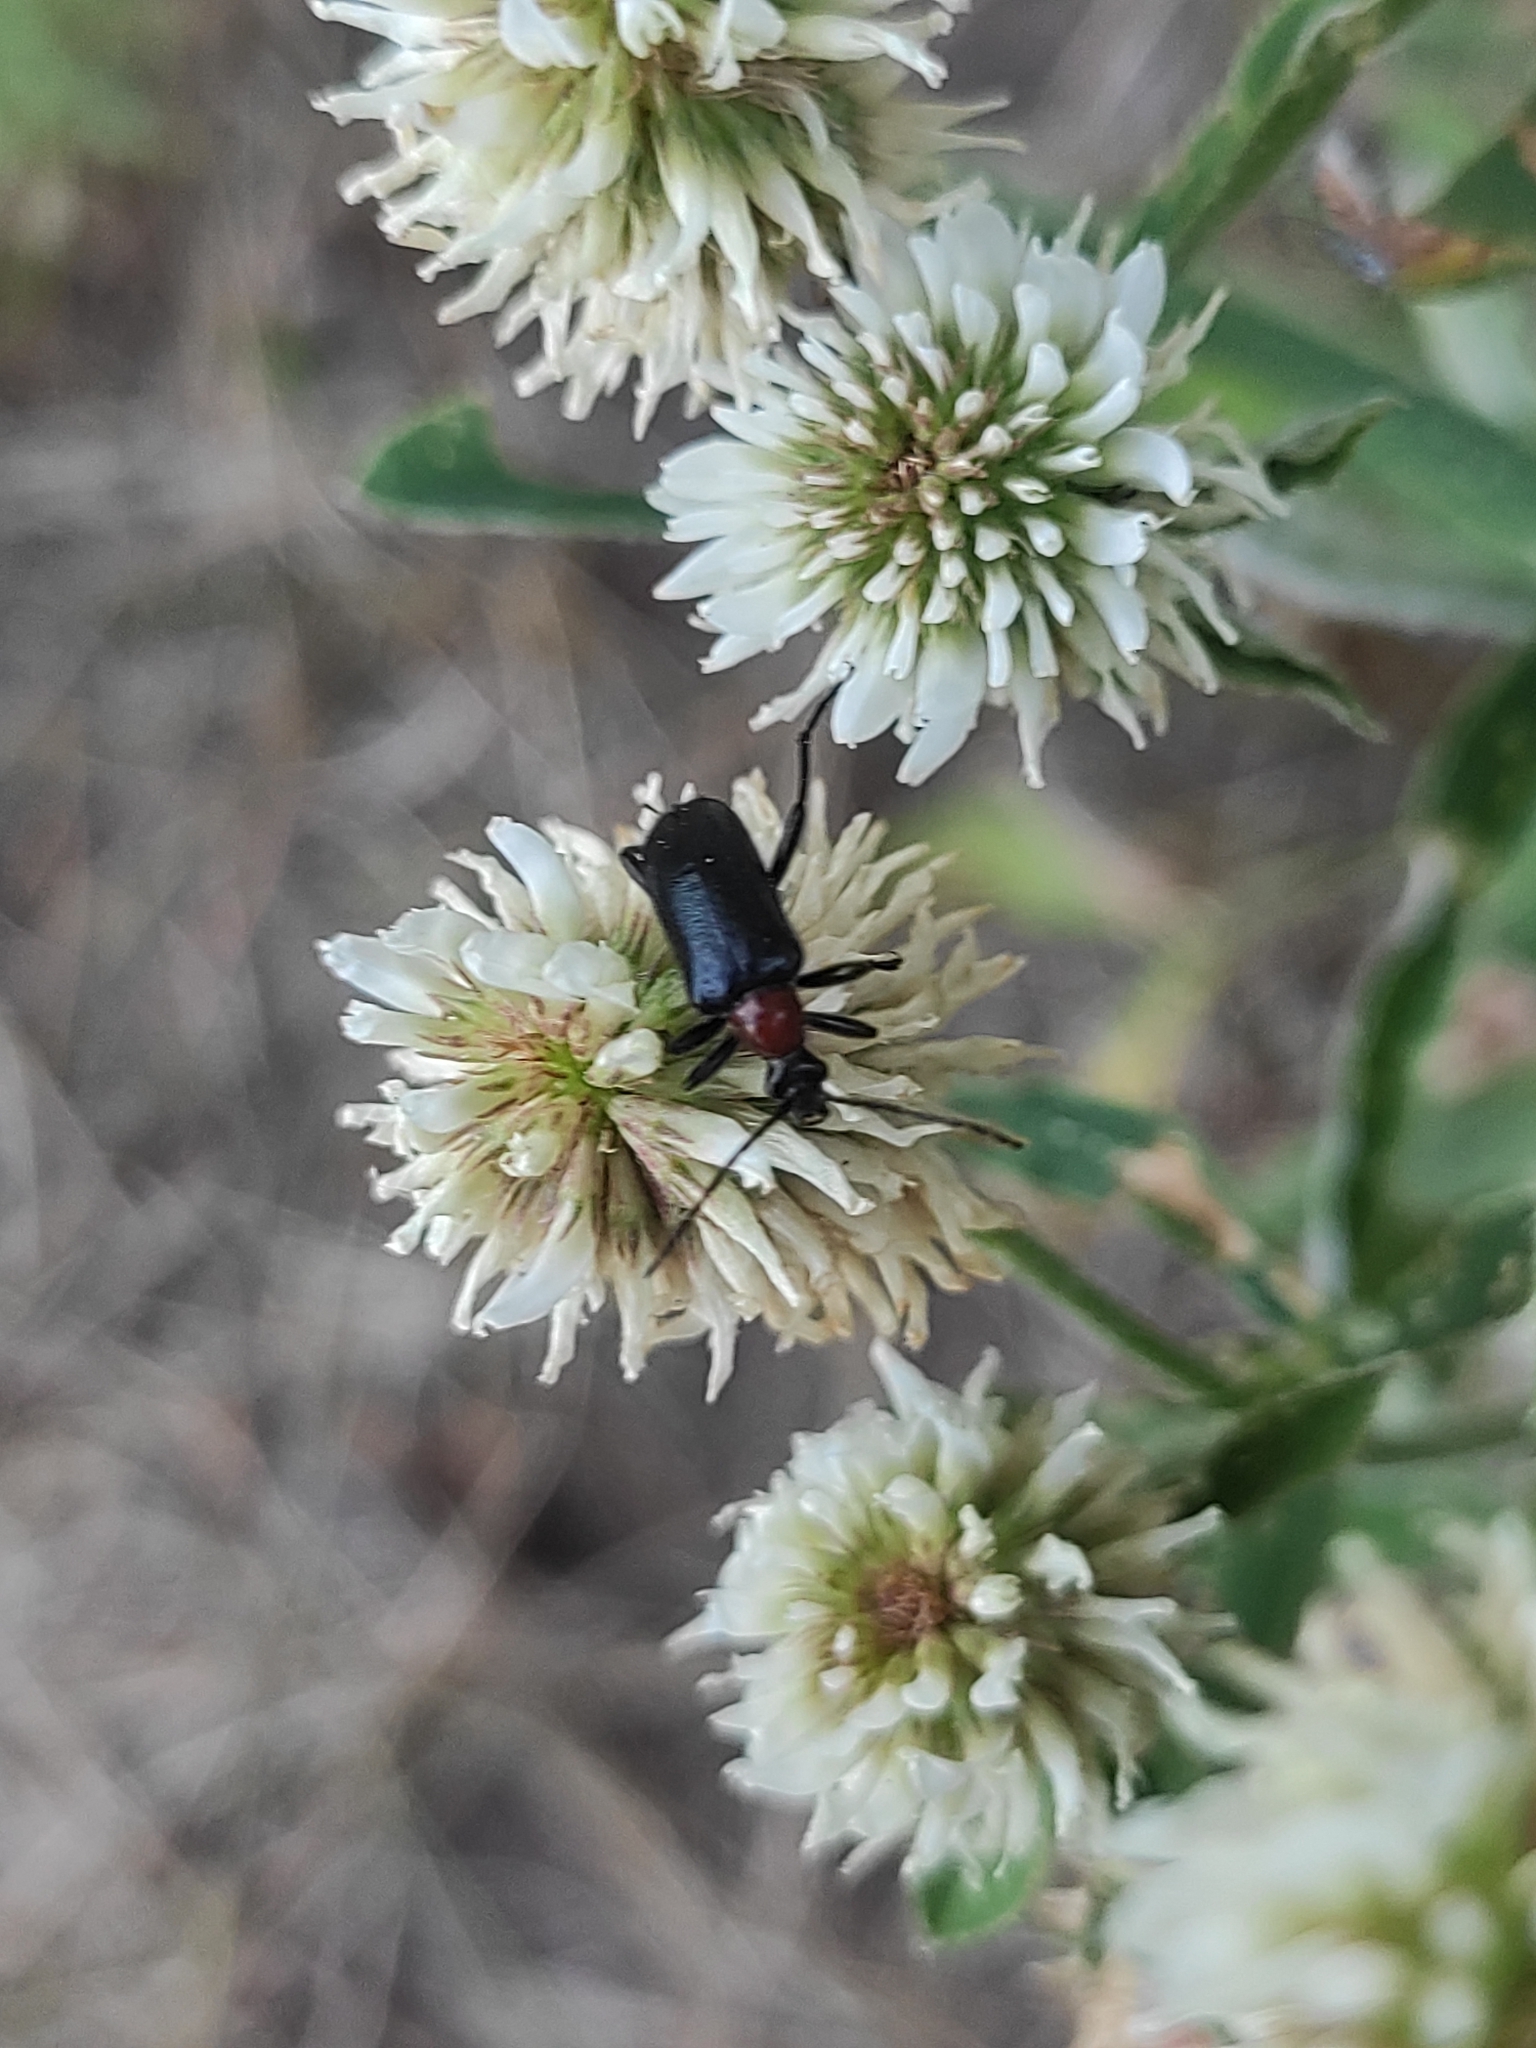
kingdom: Animalia
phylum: Arthropoda
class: Insecta
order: Coleoptera
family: Cerambycidae
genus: Dinoptera
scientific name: Dinoptera collaris
